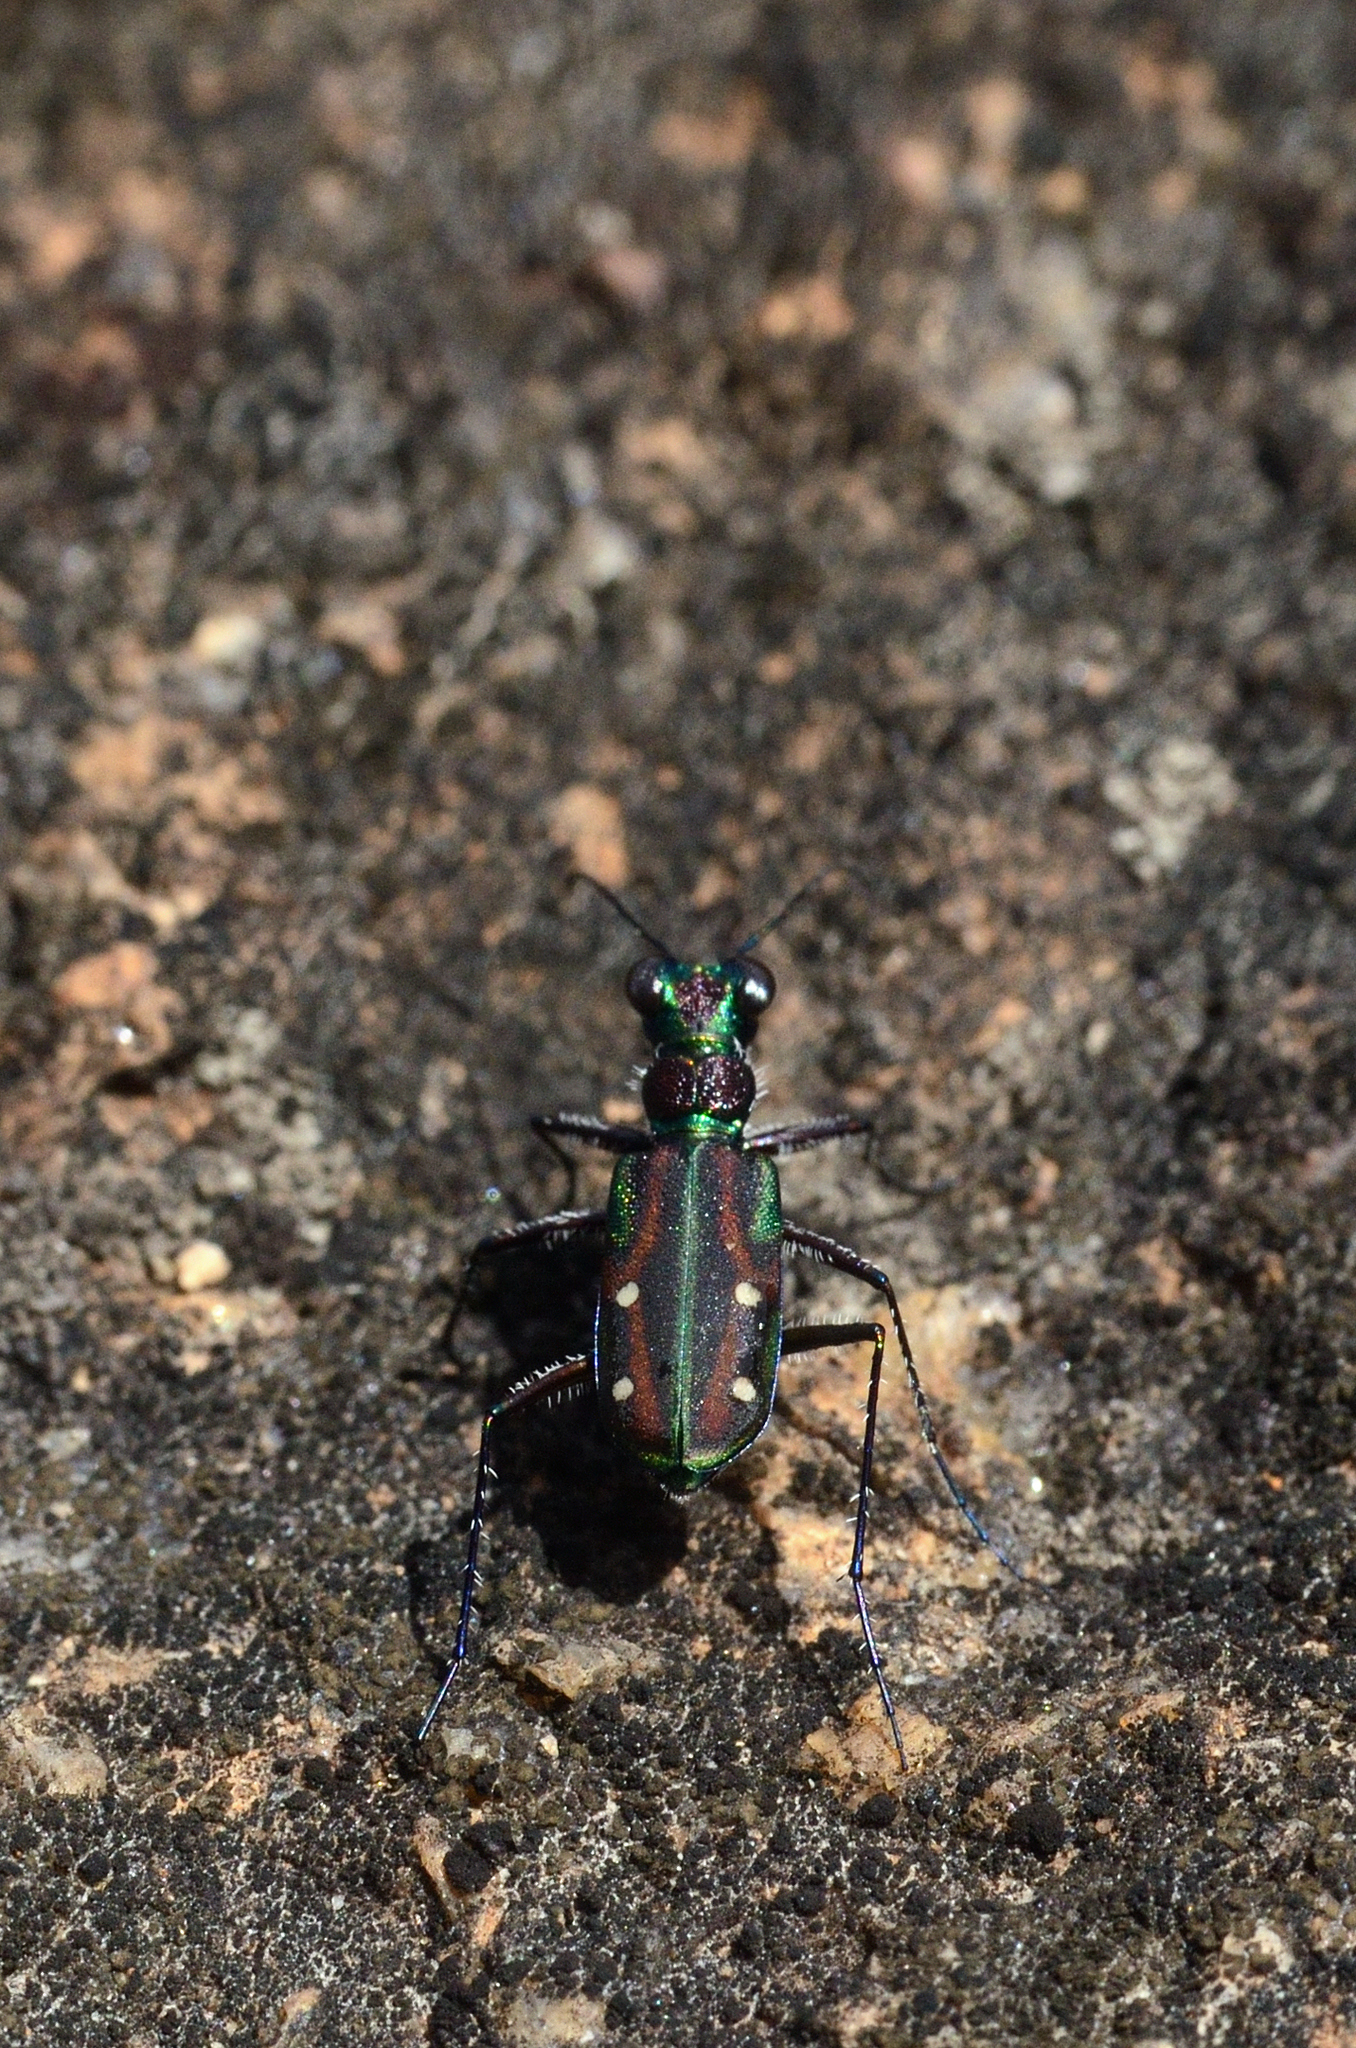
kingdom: Animalia
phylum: Arthropoda
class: Insecta
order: Coleoptera
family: Carabidae
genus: Jansenia
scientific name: Jansenia rugosiceps
